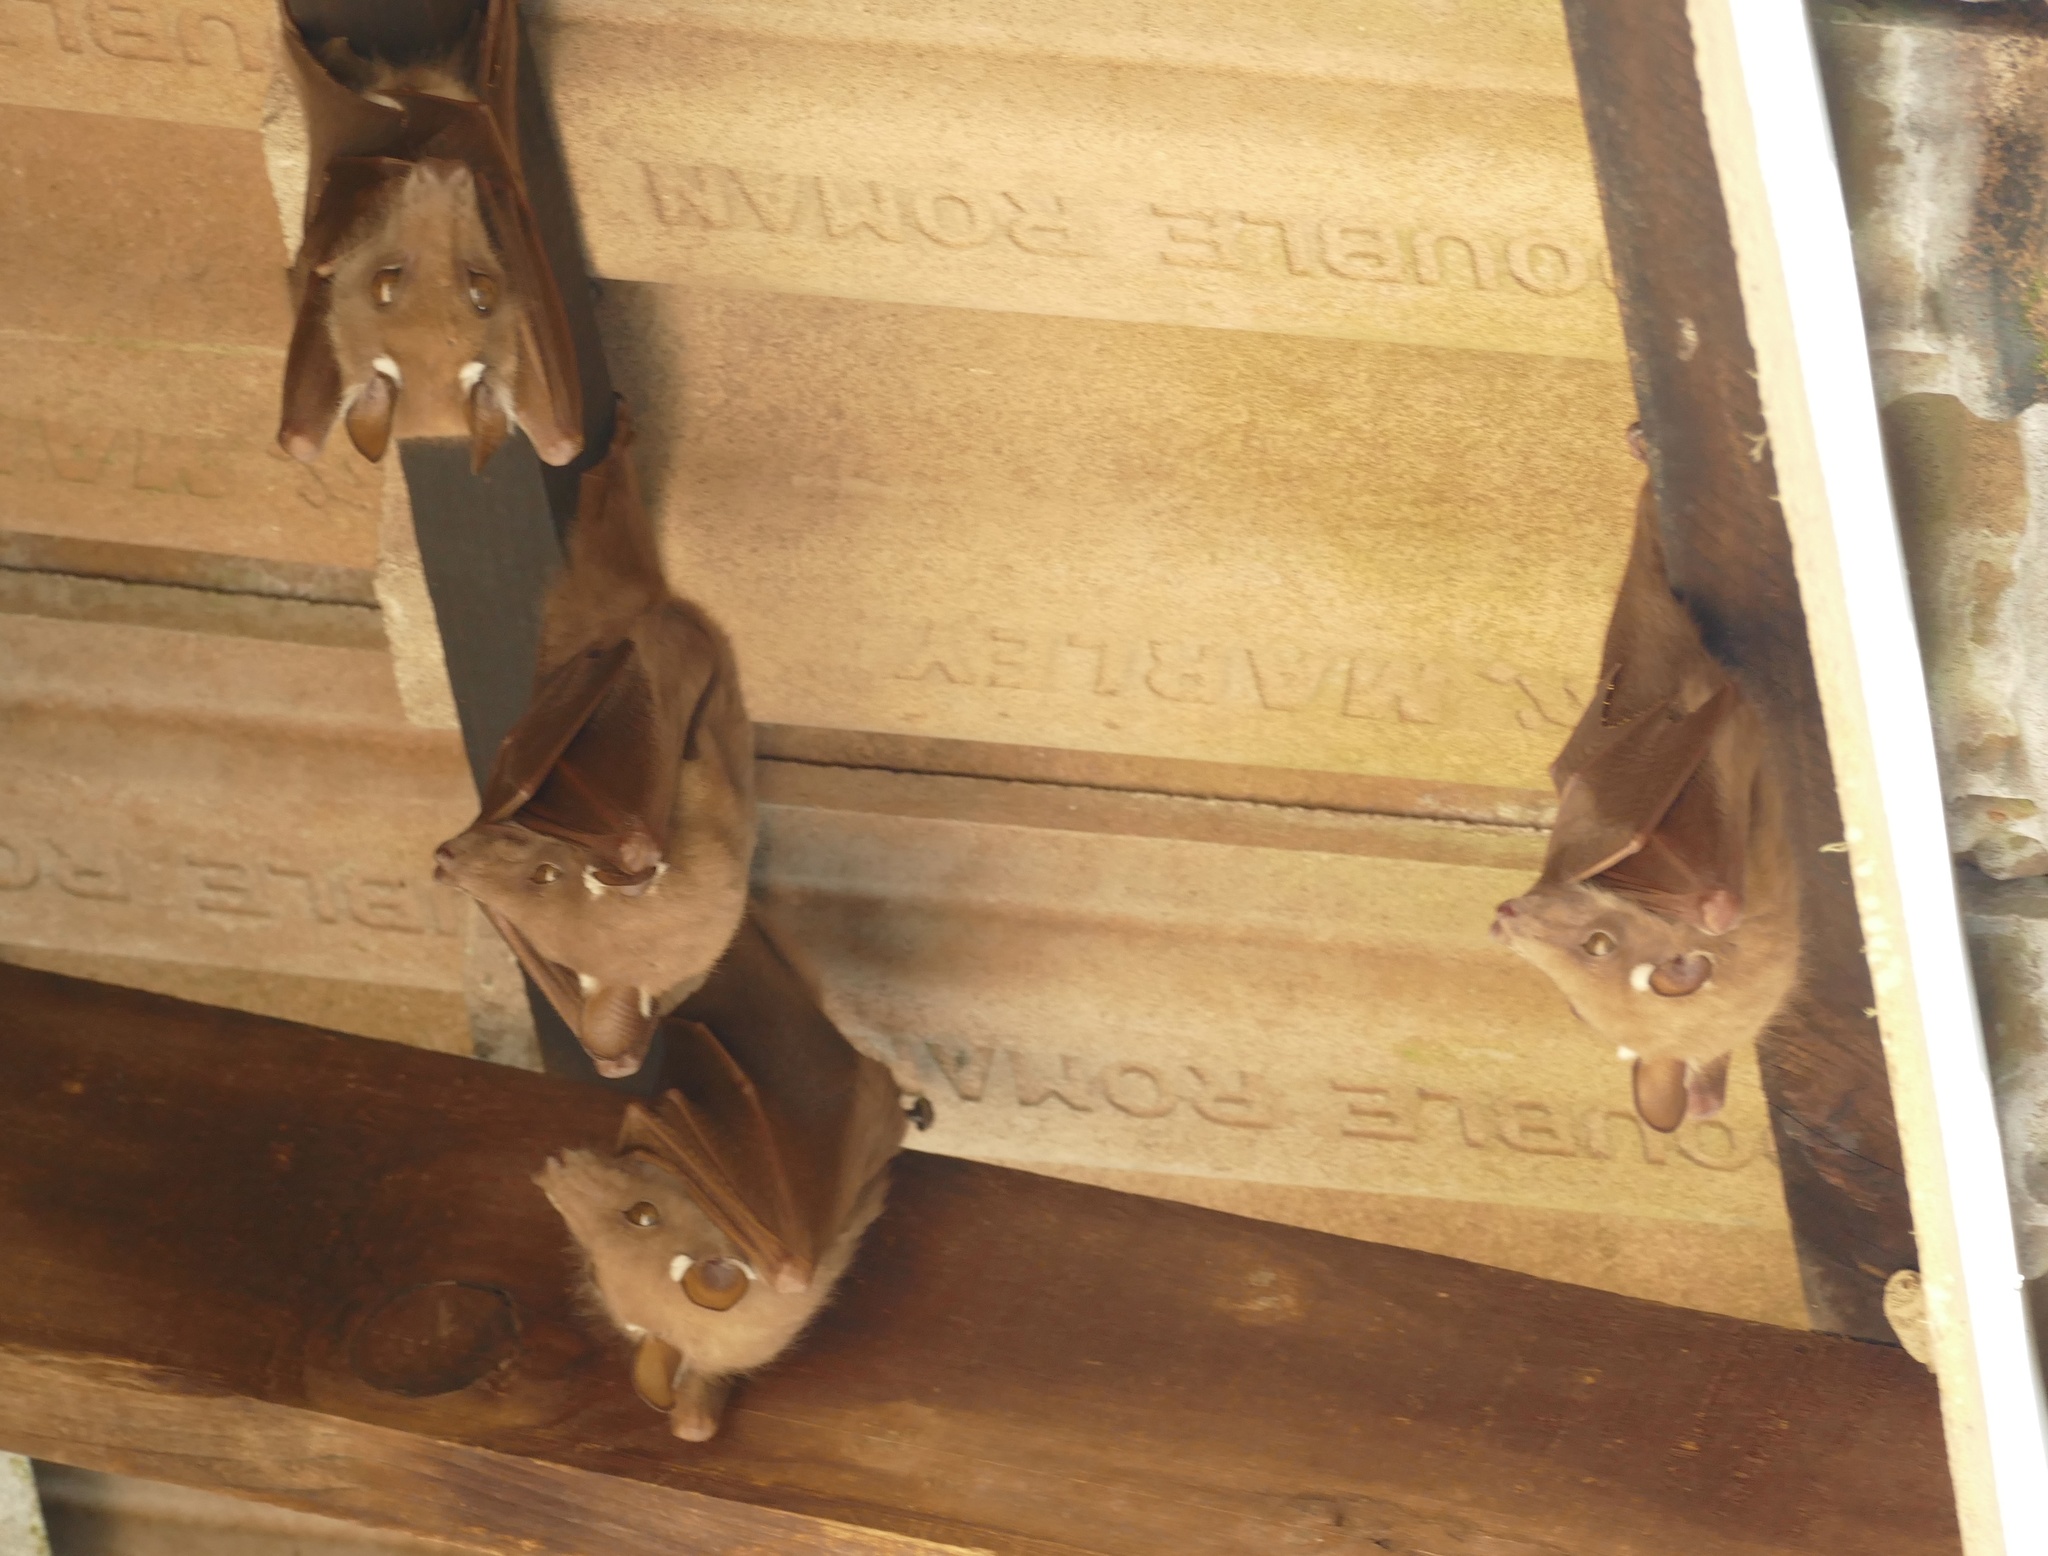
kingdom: Animalia
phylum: Chordata
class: Mammalia
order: Chiroptera
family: Pteropodidae
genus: Epomophorus
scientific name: Epomophorus wahlbergi
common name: Wahlberg's epauletted fruit bat
